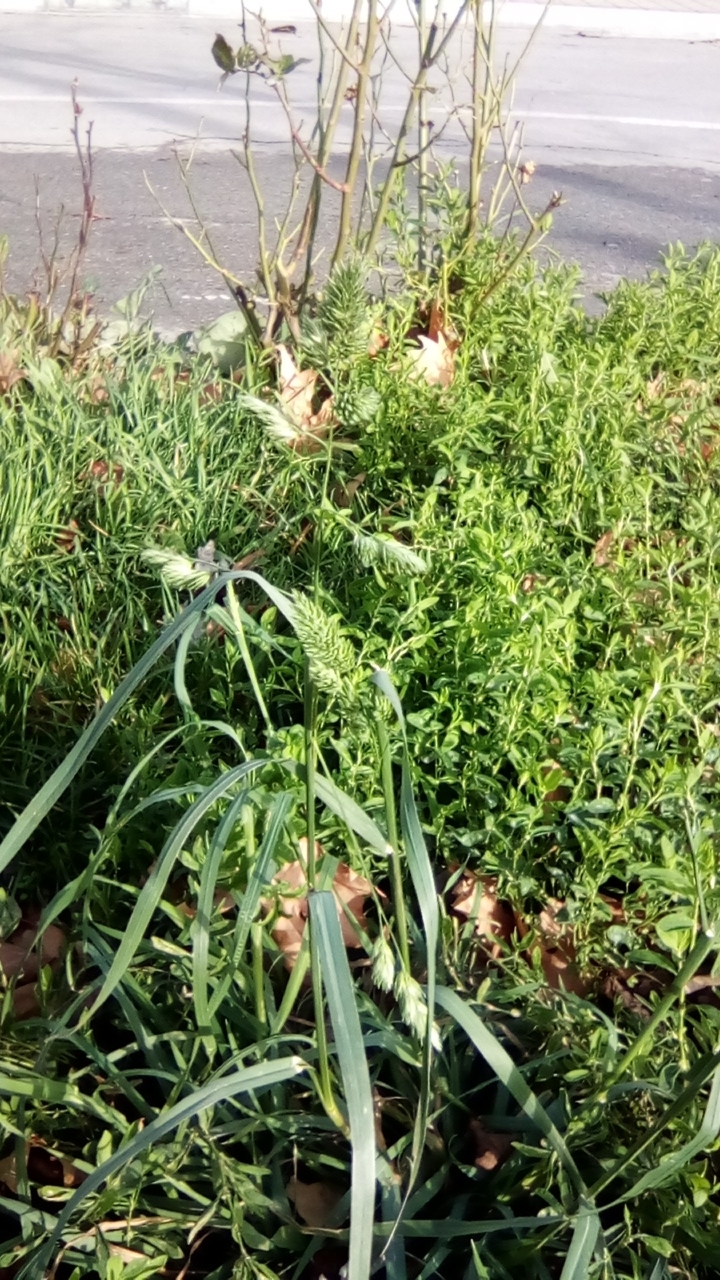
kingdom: Plantae
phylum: Tracheophyta
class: Liliopsida
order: Poales
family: Poaceae
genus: Dactylis
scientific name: Dactylis glomerata
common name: Orchardgrass
